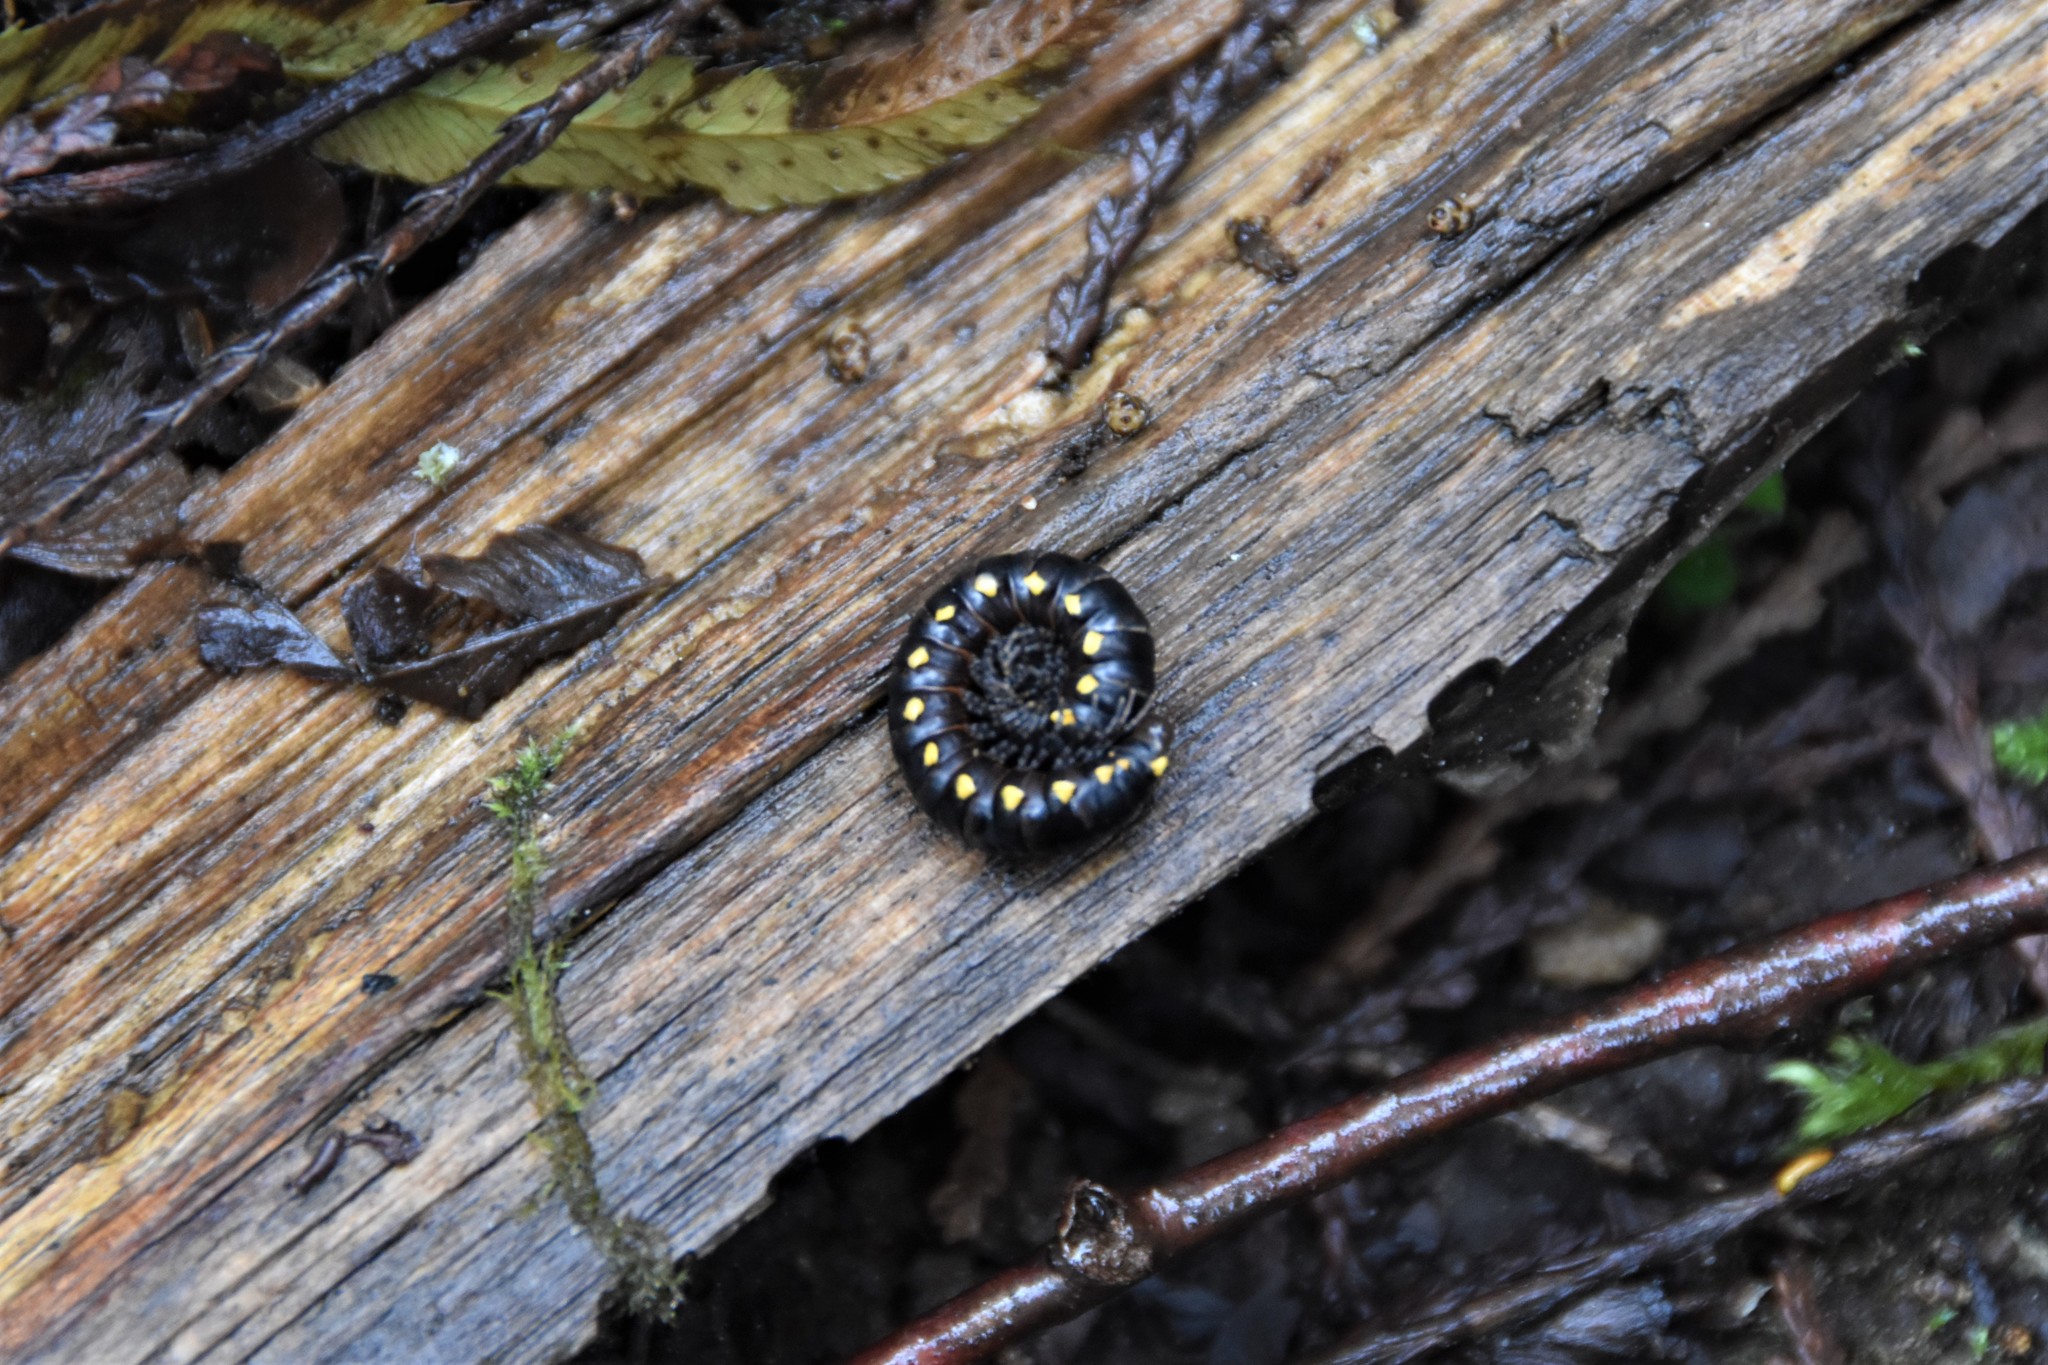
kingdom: Animalia
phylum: Arthropoda
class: Diplopoda
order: Polydesmida
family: Xystodesmidae
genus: Harpaphe
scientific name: Harpaphe haydeniana
